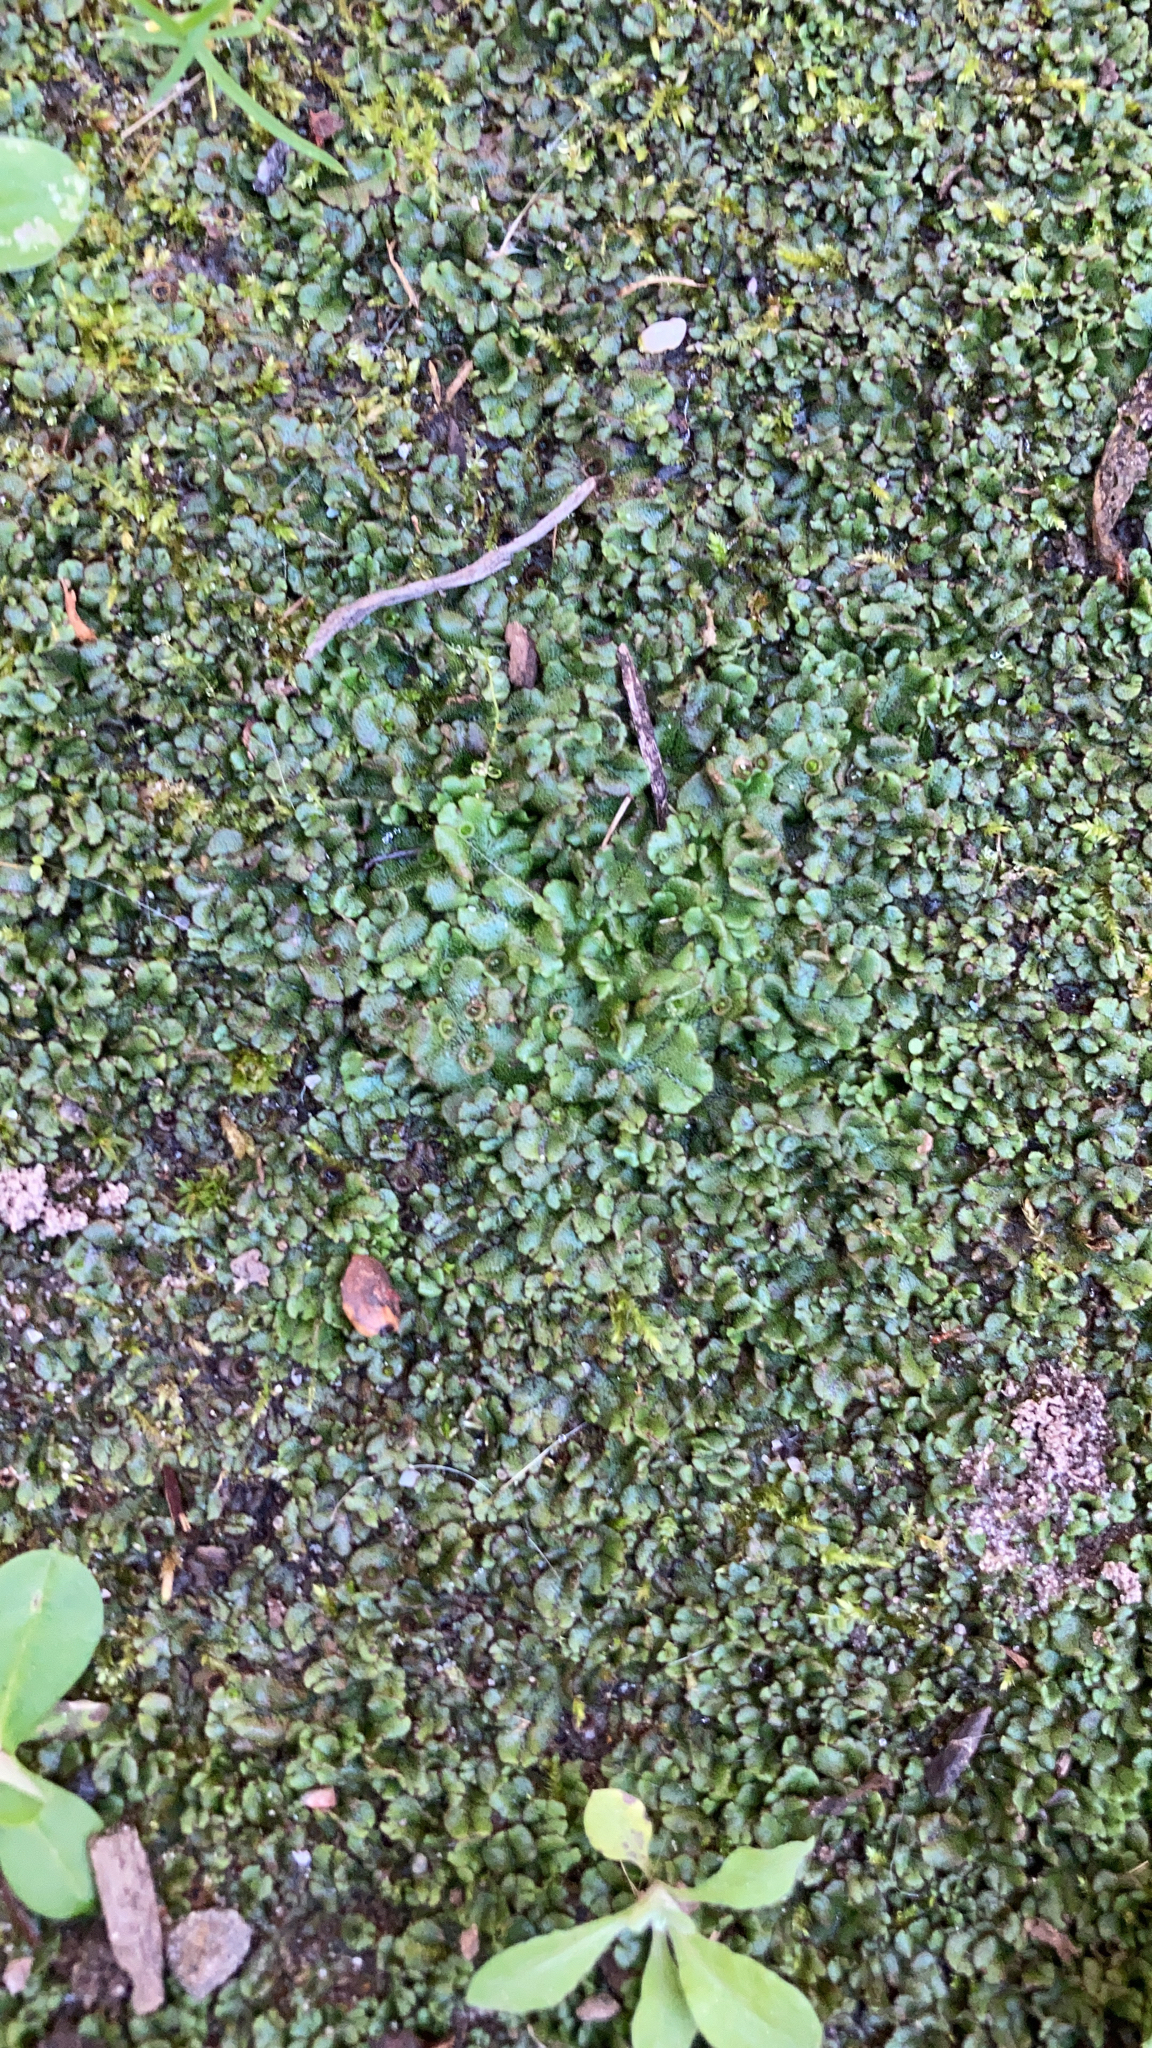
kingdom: Plantae
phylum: Marchantiophyta
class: Marchantiopsida
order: Marchantiales
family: Marchantiaceae
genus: Marchantia
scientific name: Marchantia polymorpha
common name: Common liverwort
